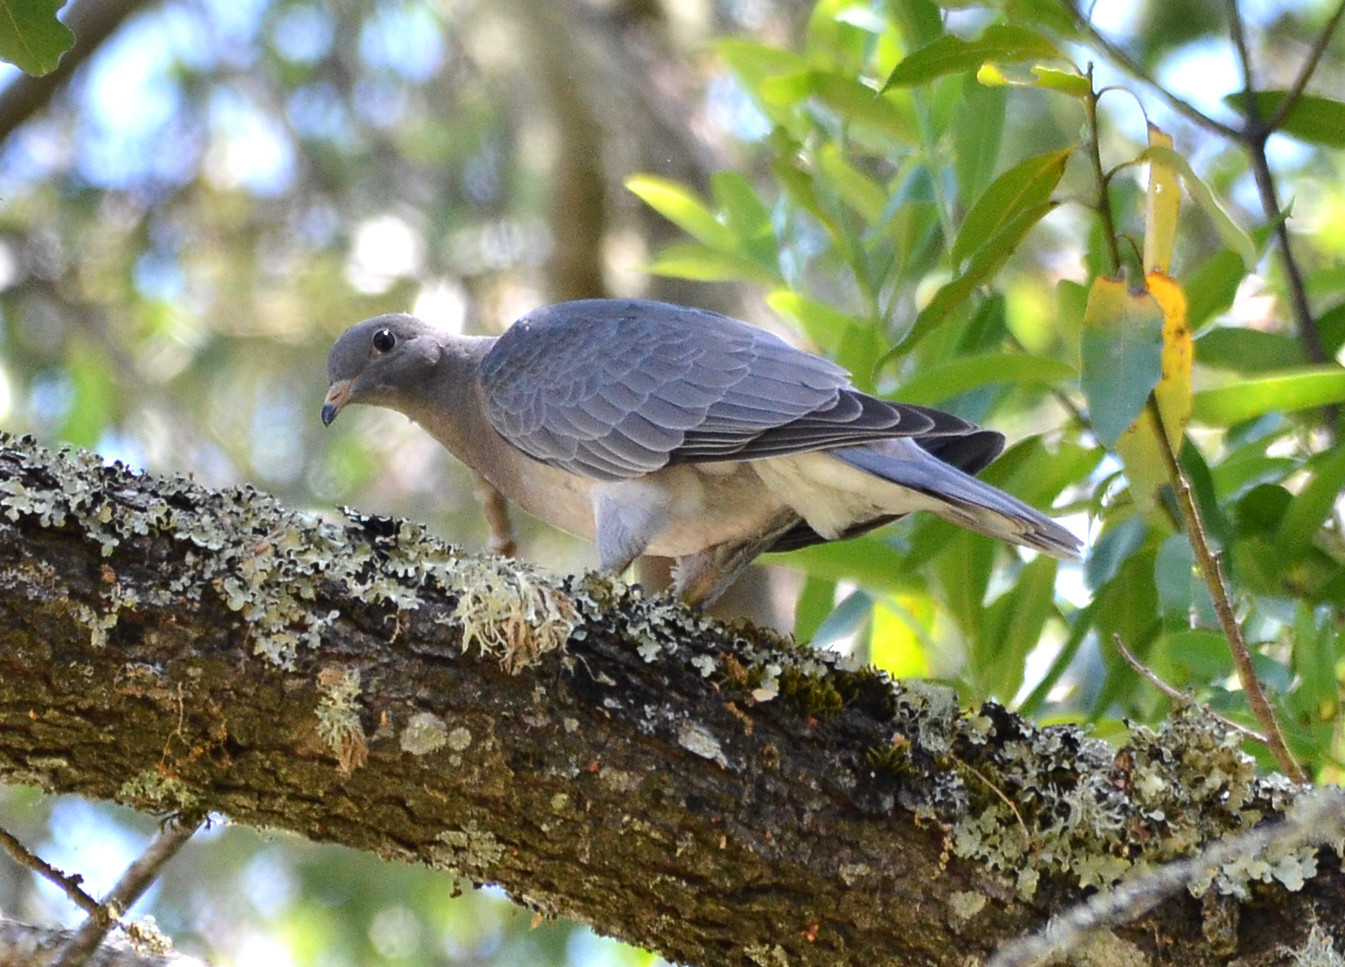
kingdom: Animalia
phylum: Chordata
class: Aves
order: Columbiformes
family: Columbidae
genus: Patagioenas
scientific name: Patagioenas fasciata
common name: Band-tailed pigeon
